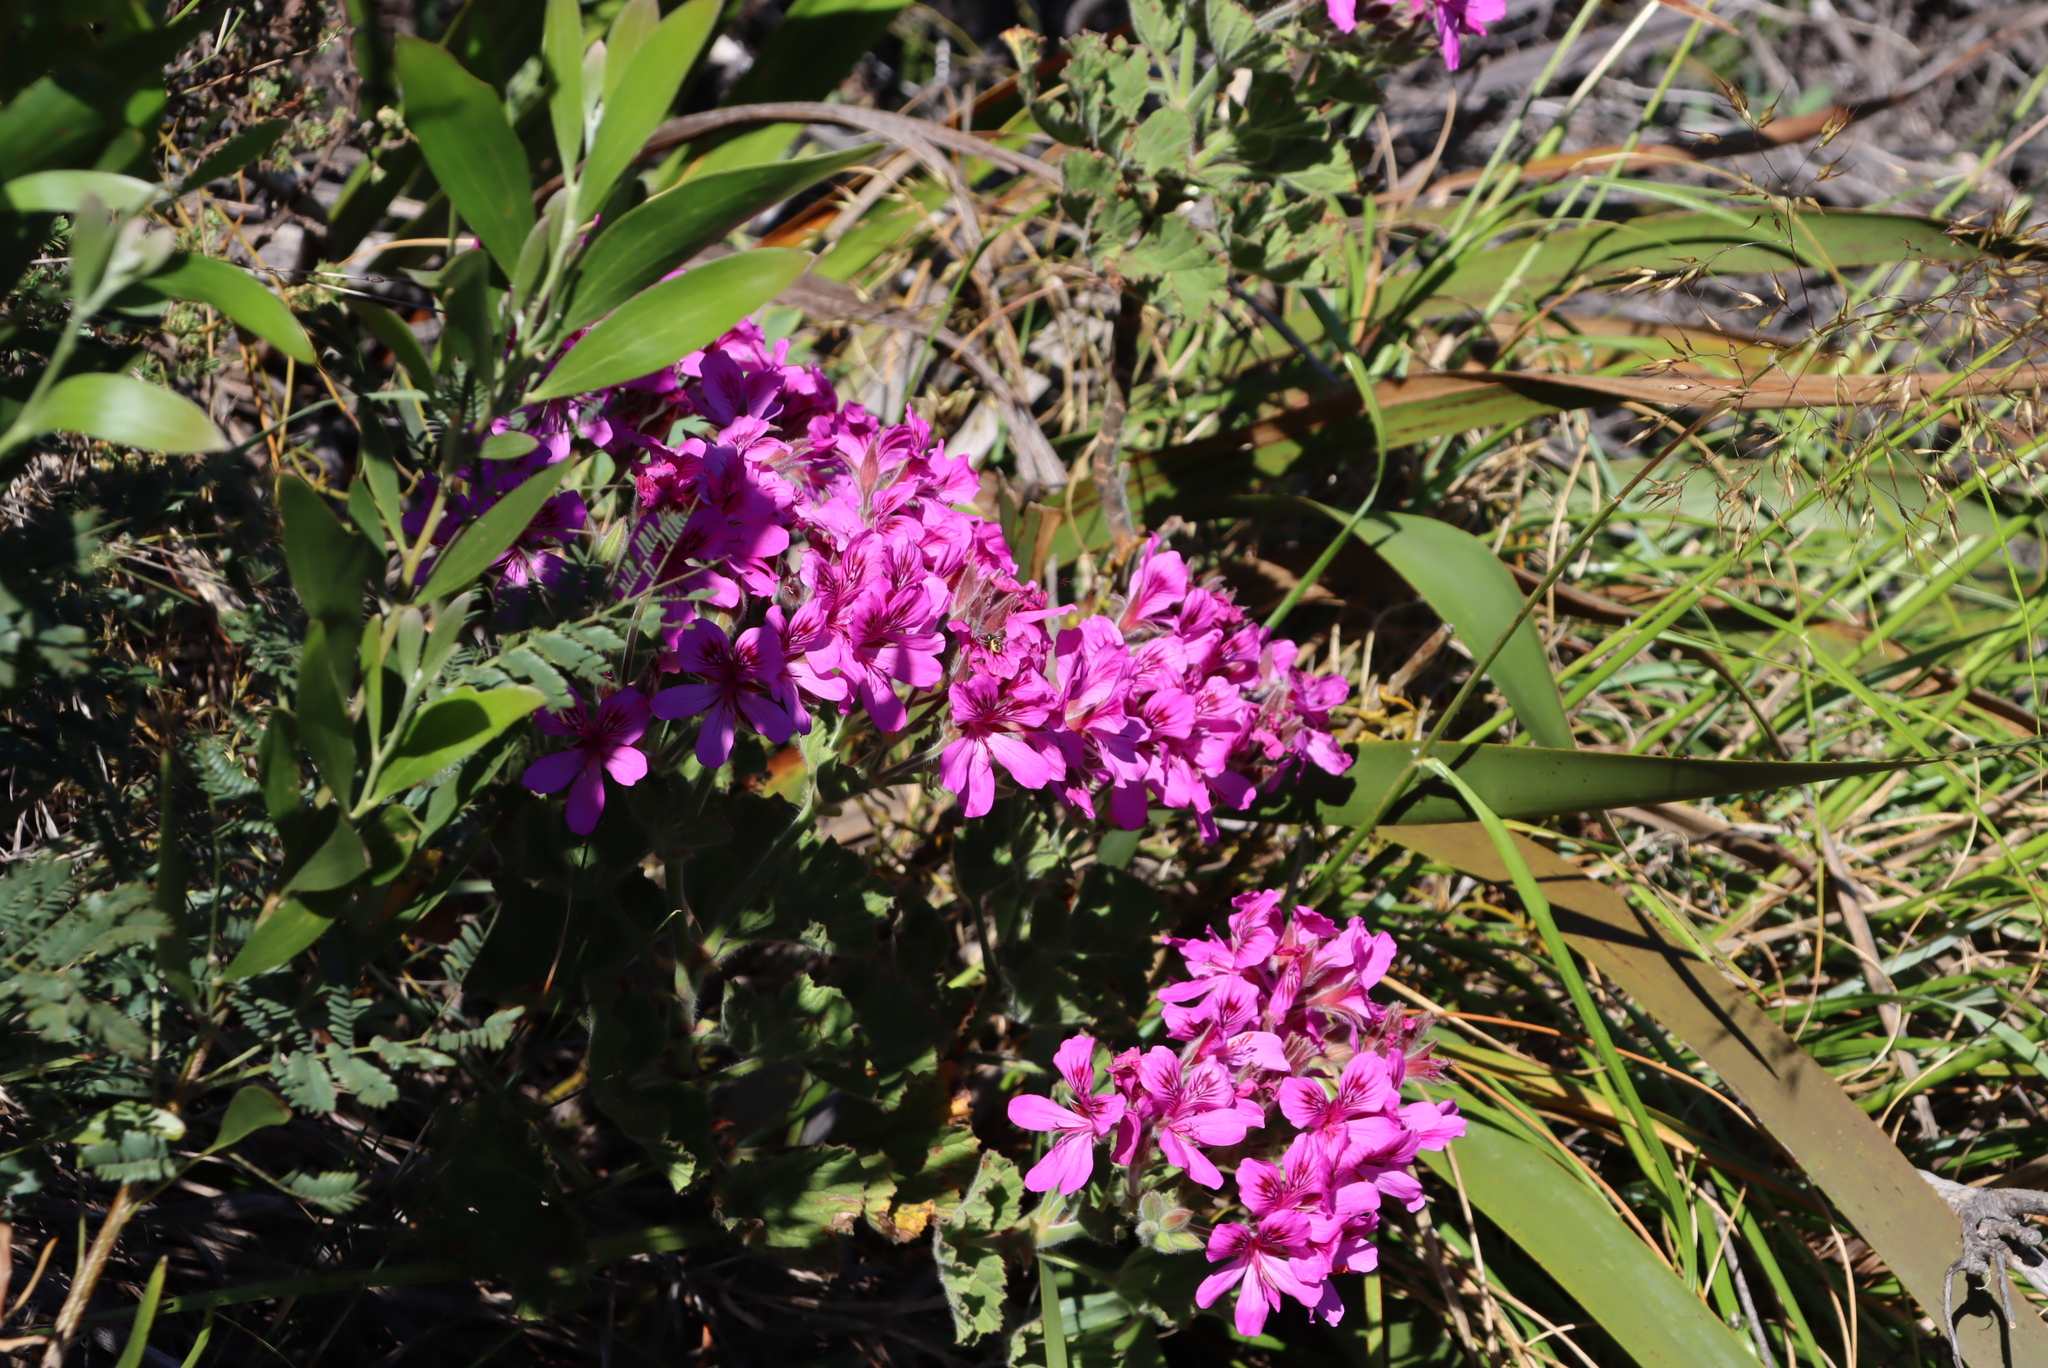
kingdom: Plantae
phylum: Tracheophyta
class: Magnoliopsida
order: Geraniales
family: Geraniaceae
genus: Pelargonium
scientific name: Pelargonium cucullatum
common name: Tree pelargonium
